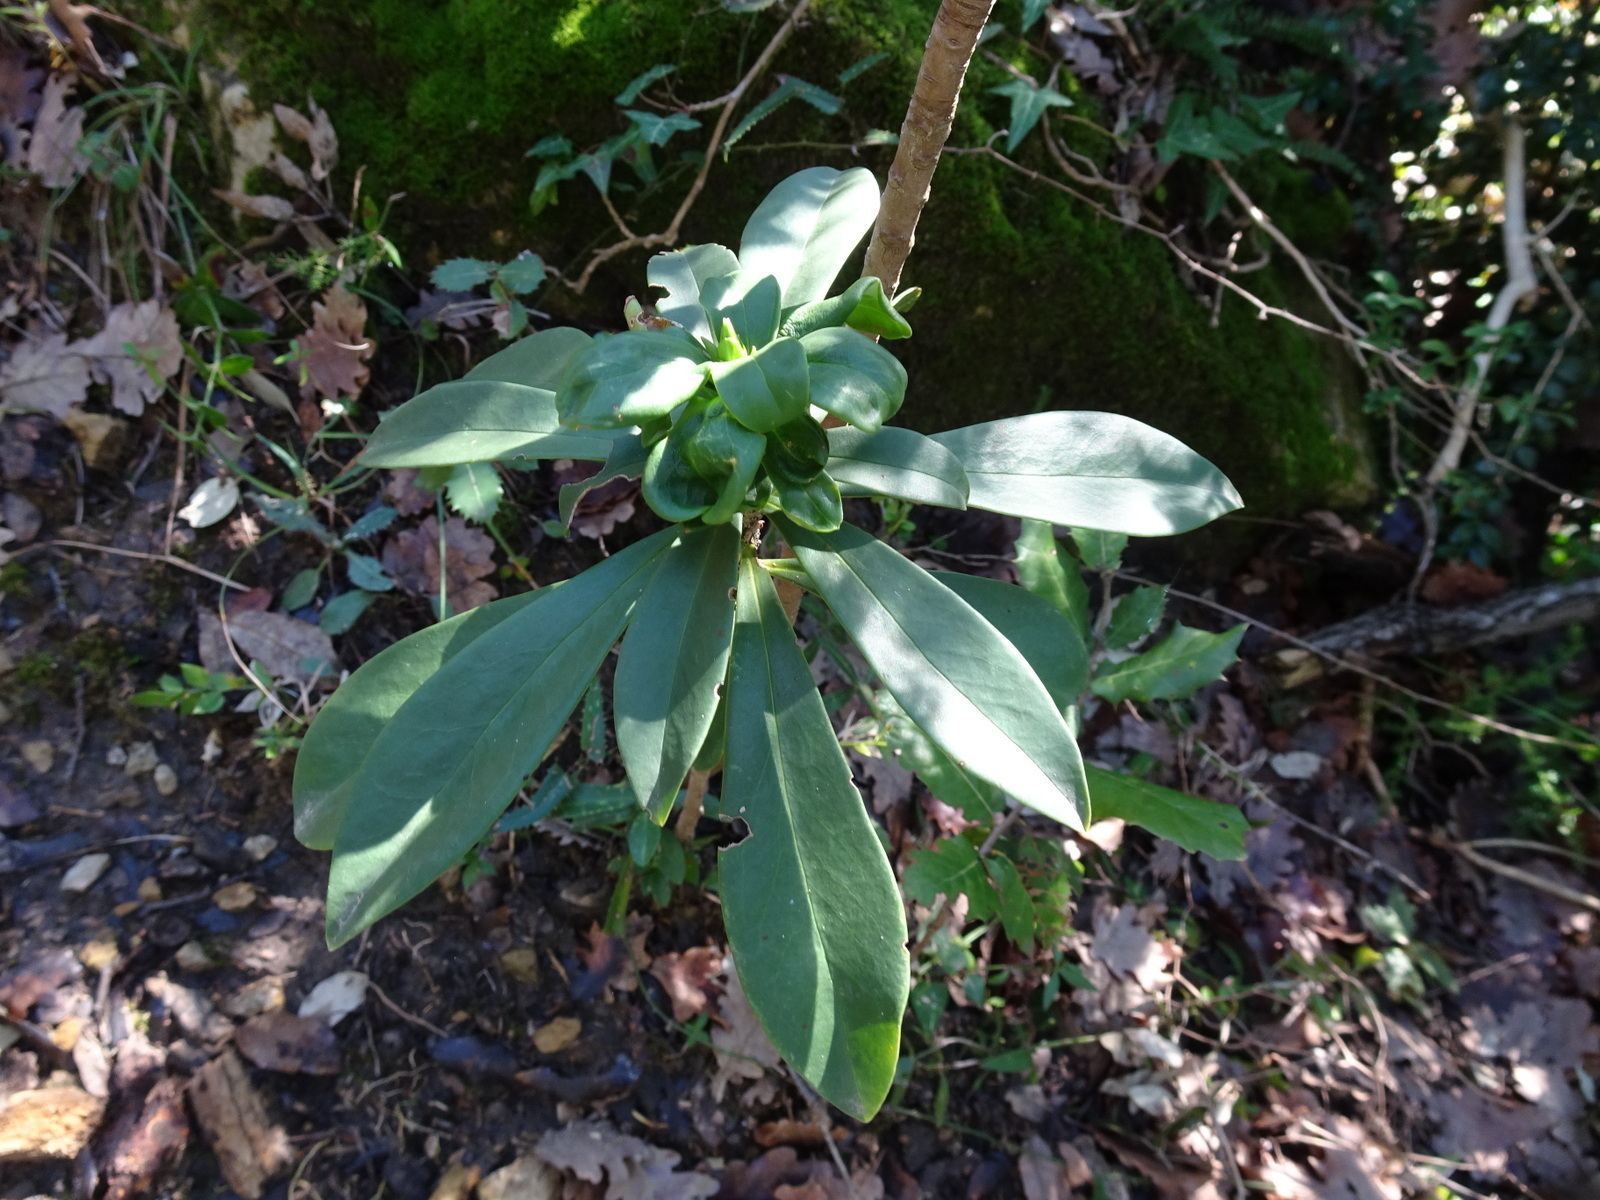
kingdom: Plantae
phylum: Tracheophyta
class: Magnoliopsida
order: Malvales
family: Thymelaeaceae
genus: Daphne
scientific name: Daphne laureola
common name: Spurge-laurel
